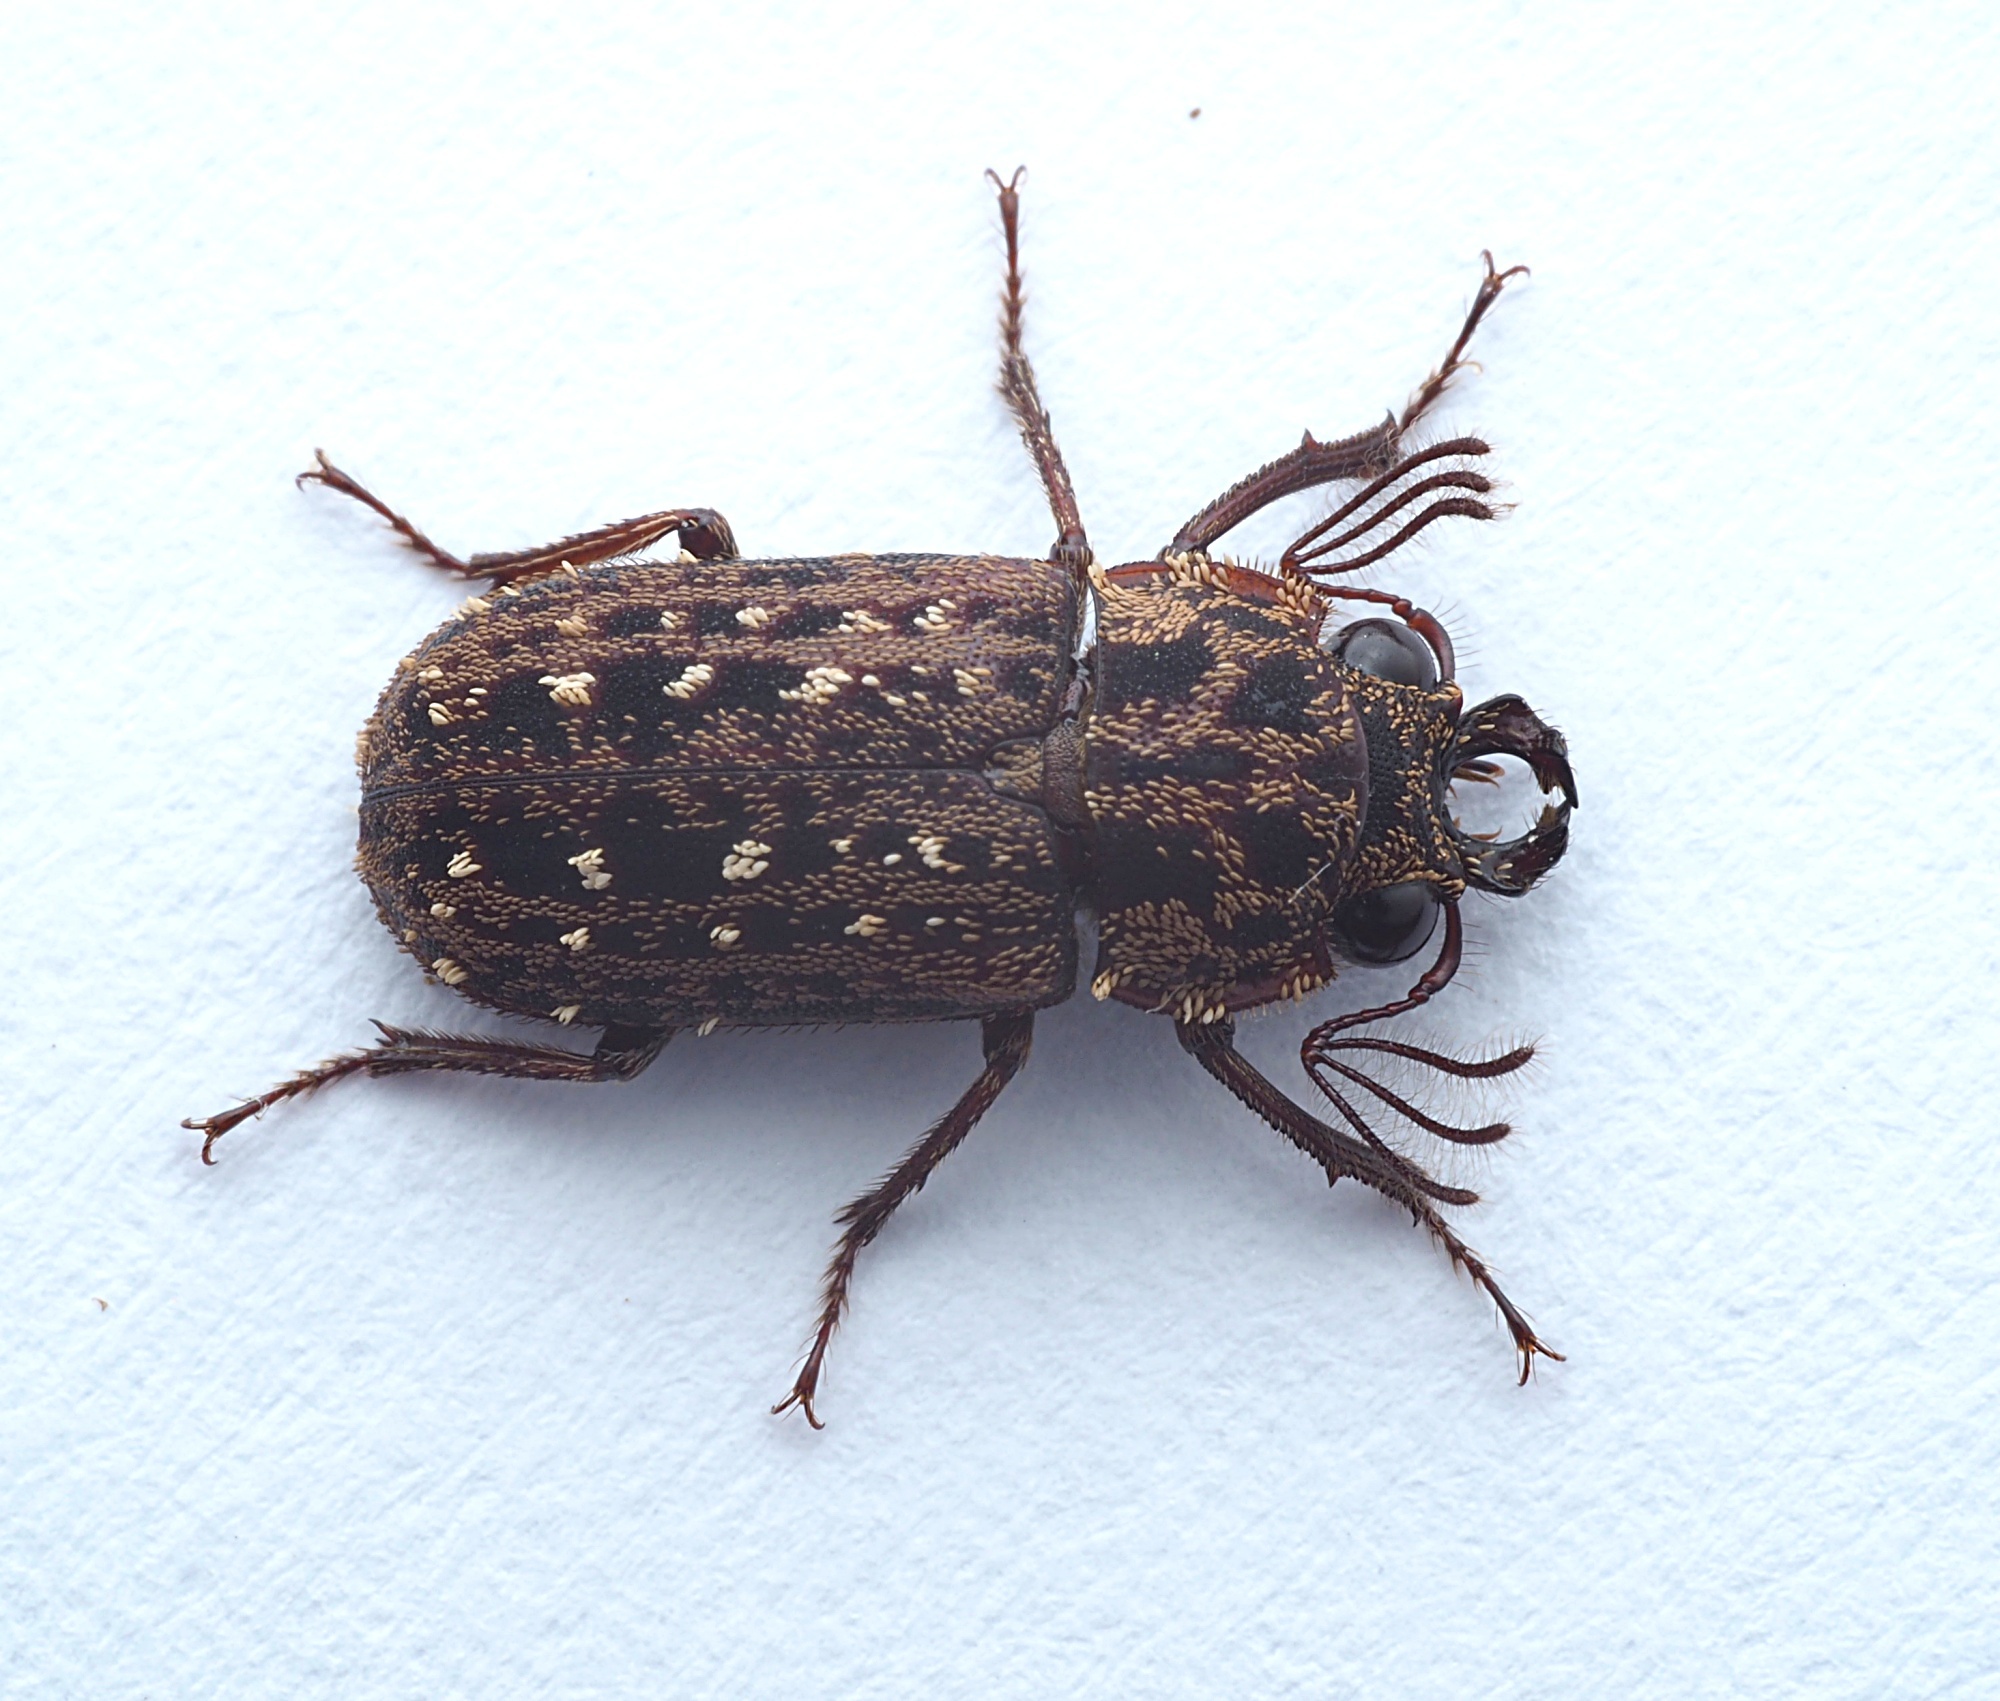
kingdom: Animalia
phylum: Arthropoda
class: Insecta
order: Coleoptera
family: Lucanidae
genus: Mitophyllus
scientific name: Mitophyllus arcuatus
